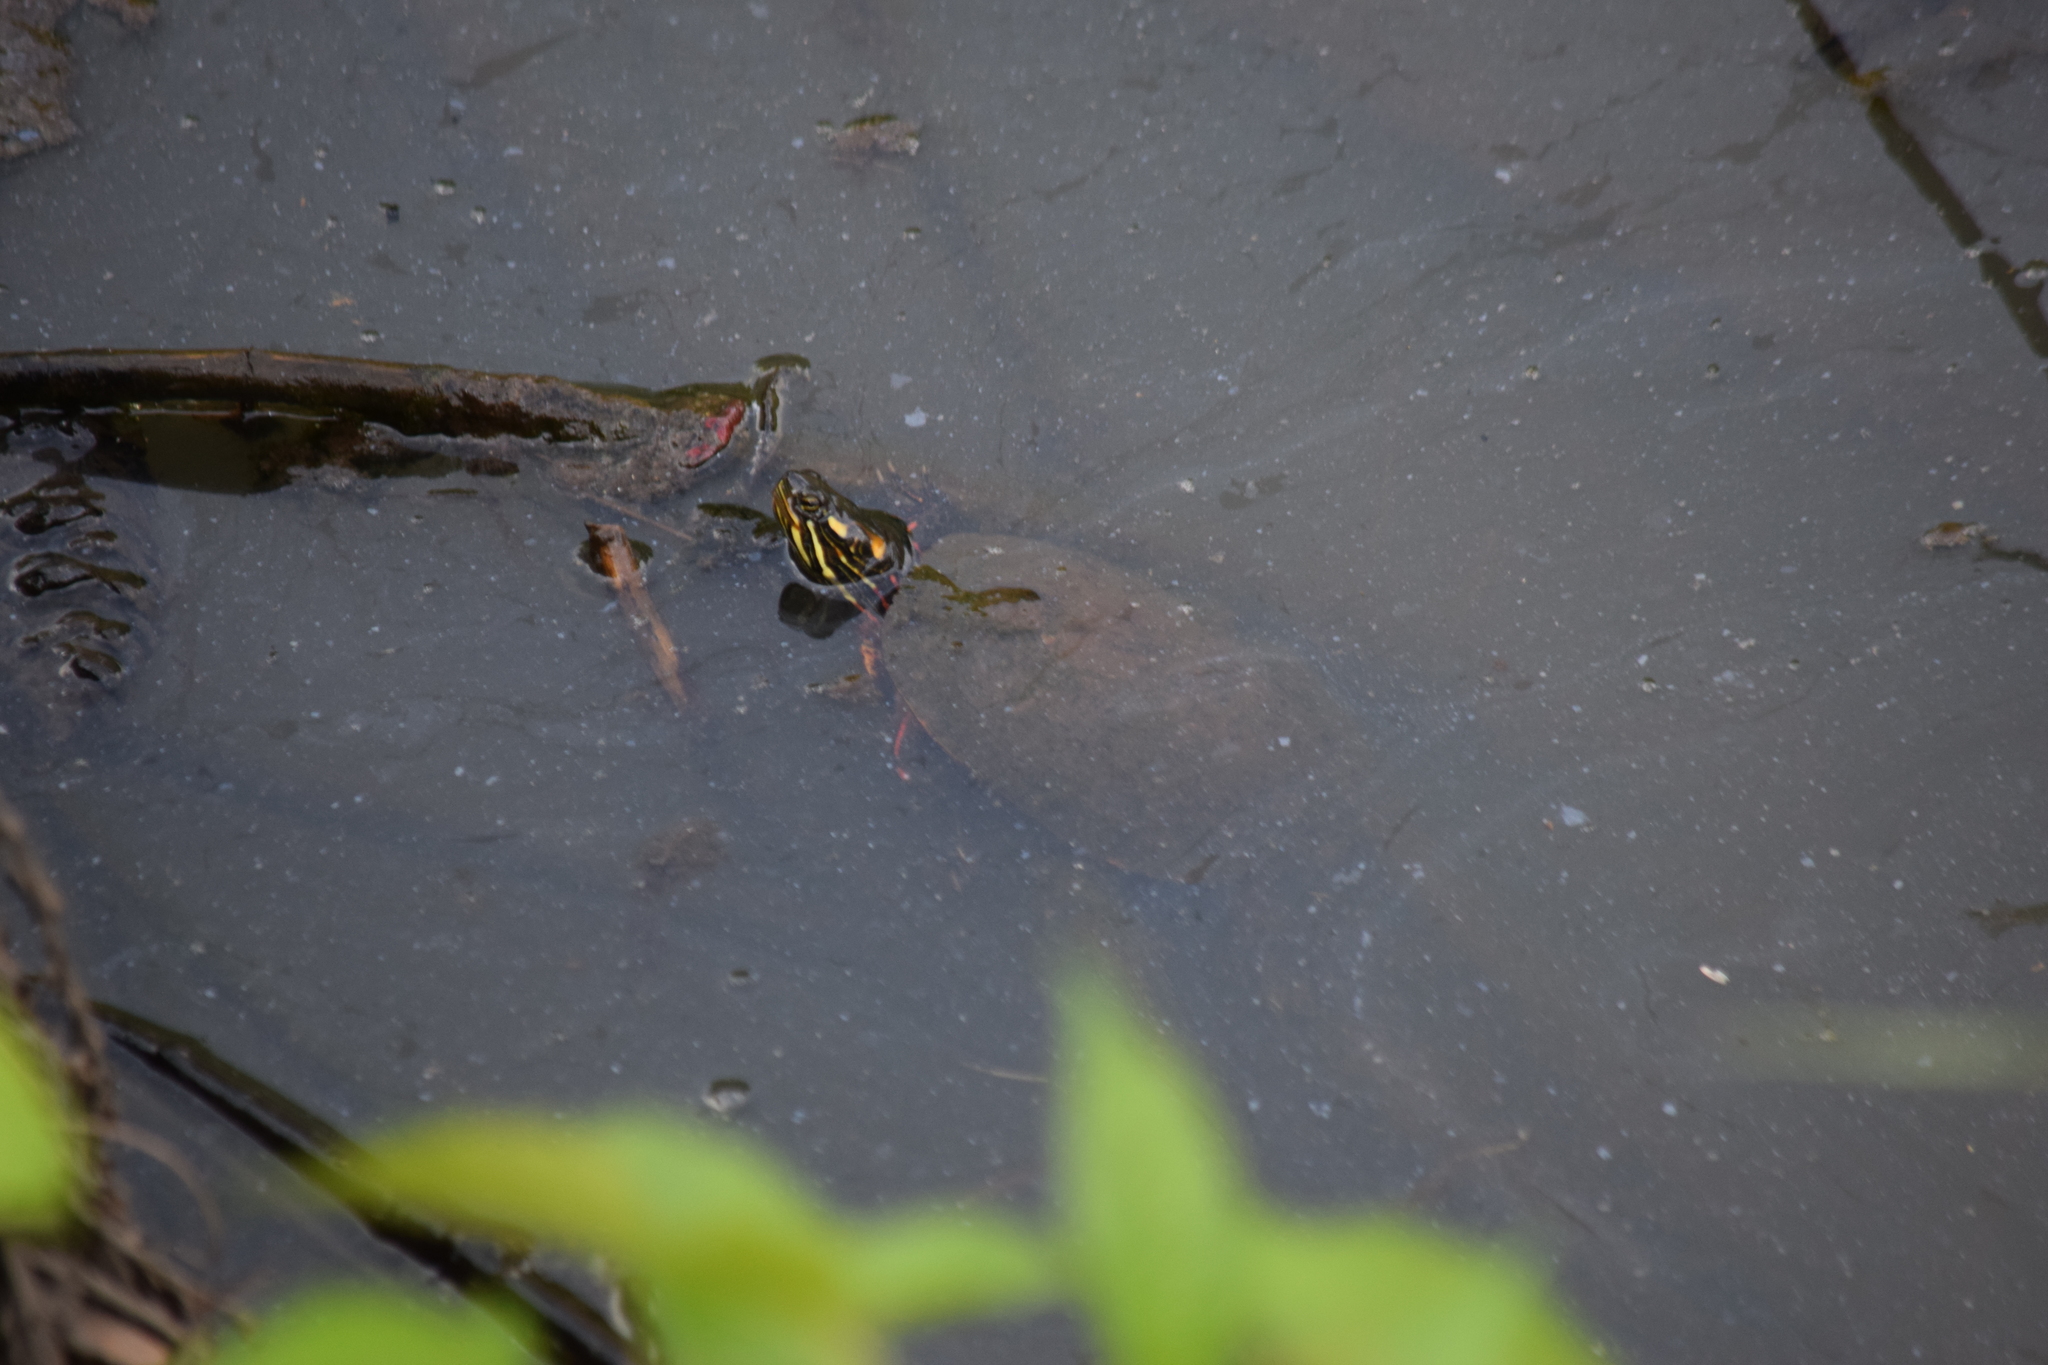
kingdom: Animalia
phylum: Chordata
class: Testudines
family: Emydidae
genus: Chrysemys
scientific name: Chrysemys picta
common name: Painted turtle
